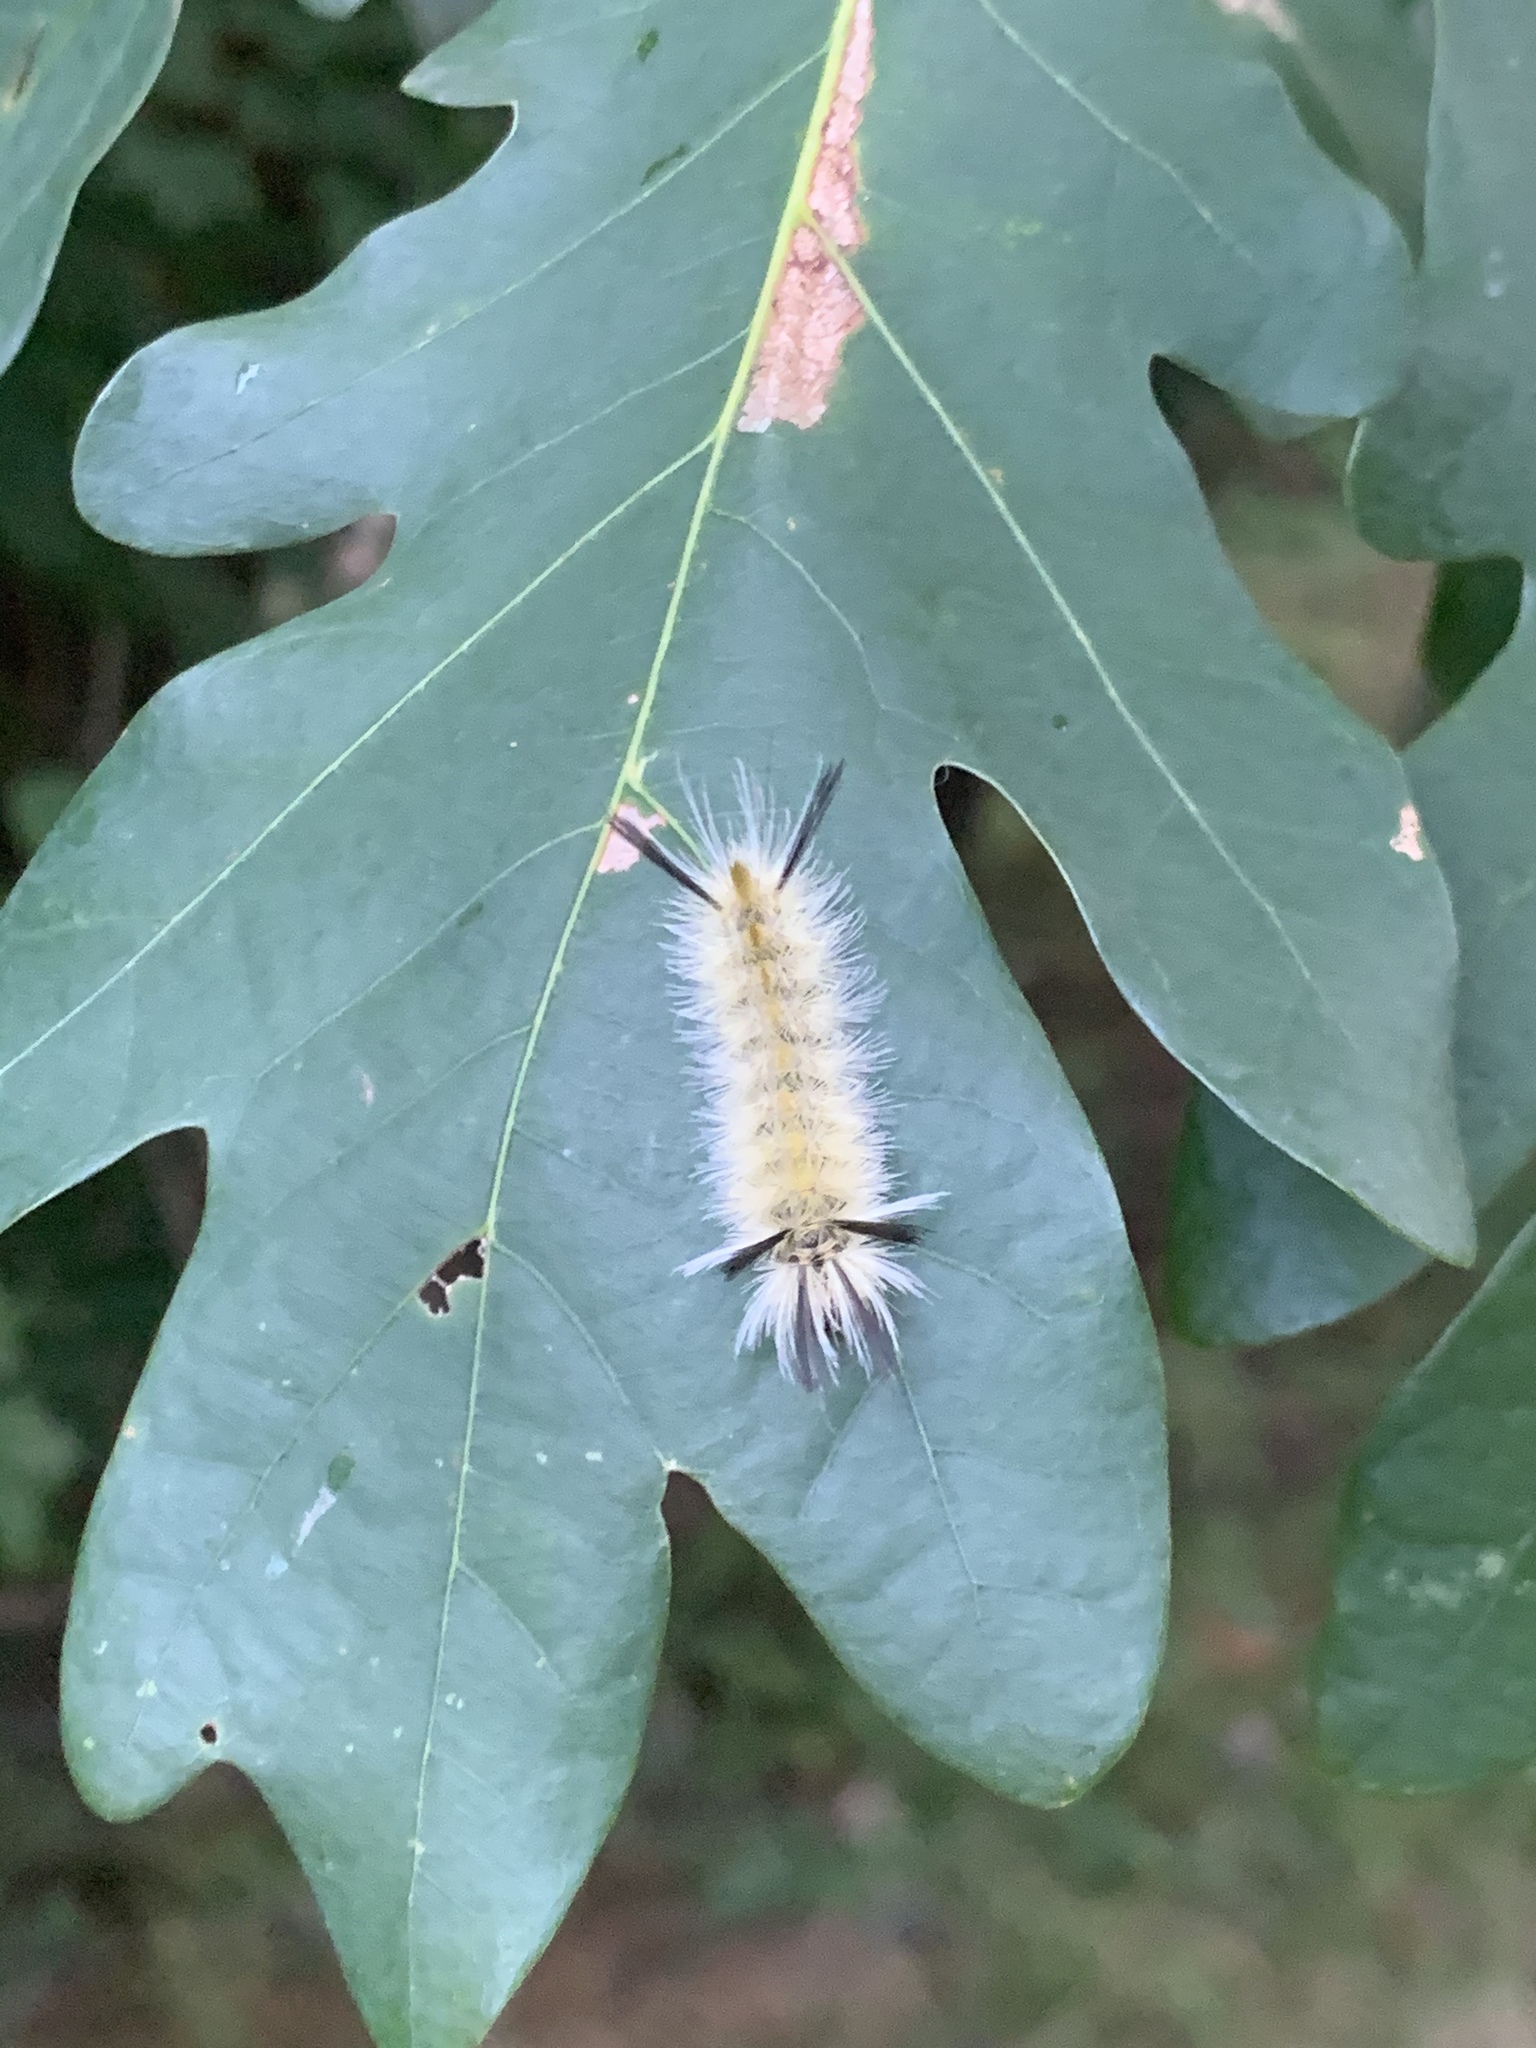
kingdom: Animalia
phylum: Arthropoda
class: Insecta
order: Lepidoptera
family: Erebidae
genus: Halysidota
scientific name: Halysidota tessellaris
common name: Banded tussock moth
